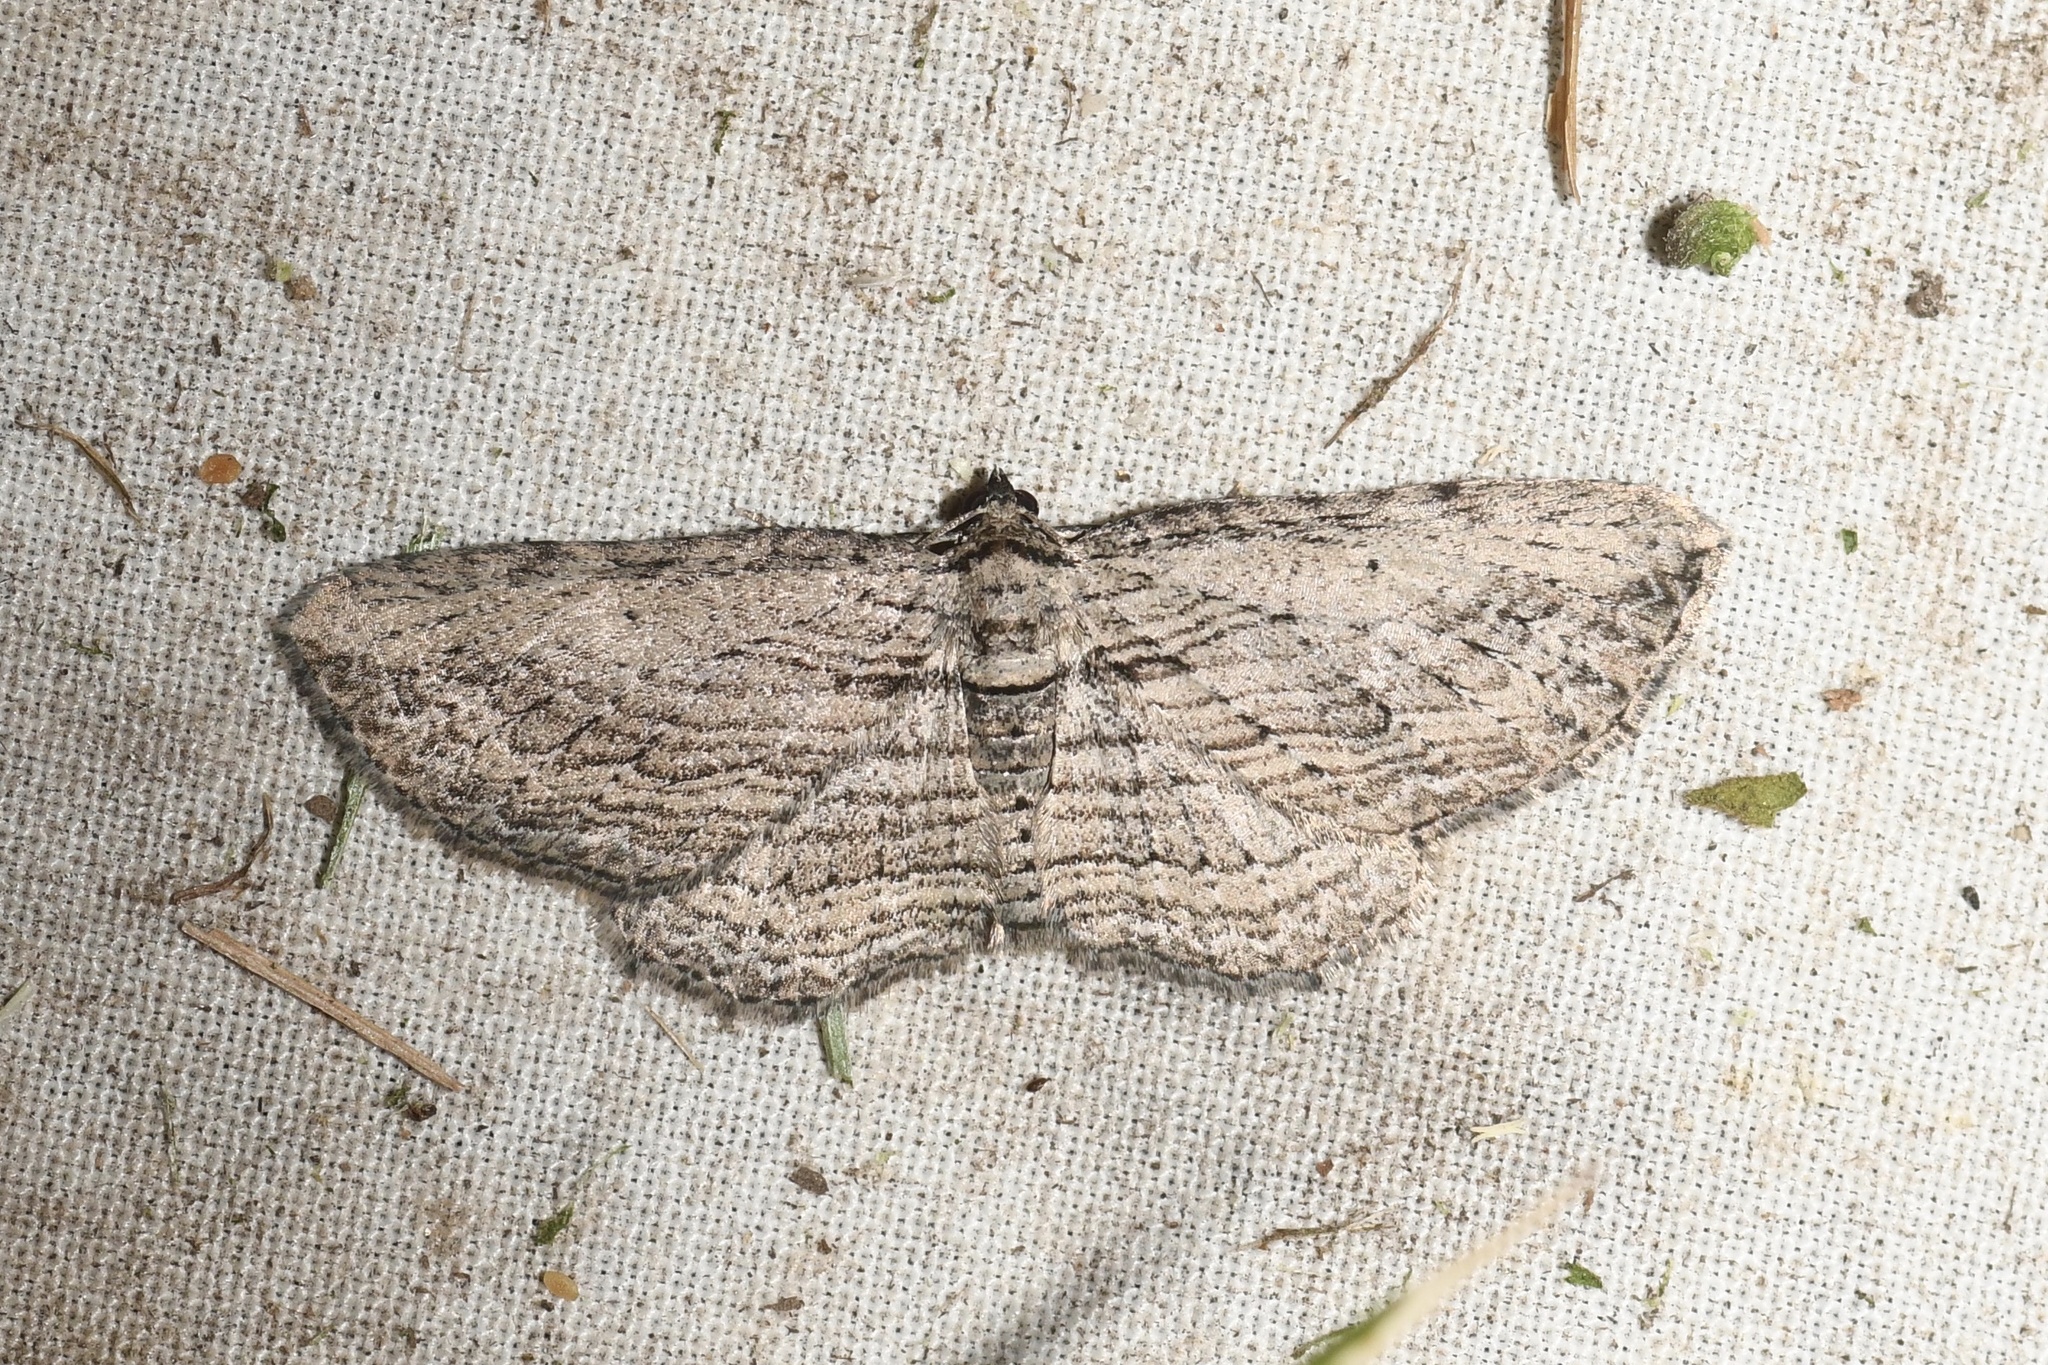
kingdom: Animalia
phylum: Arthropoda
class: Insecta
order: Lepidoptera
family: Geometridae
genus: Horisme
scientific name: Horisme intestinata
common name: Brown bark carpet
